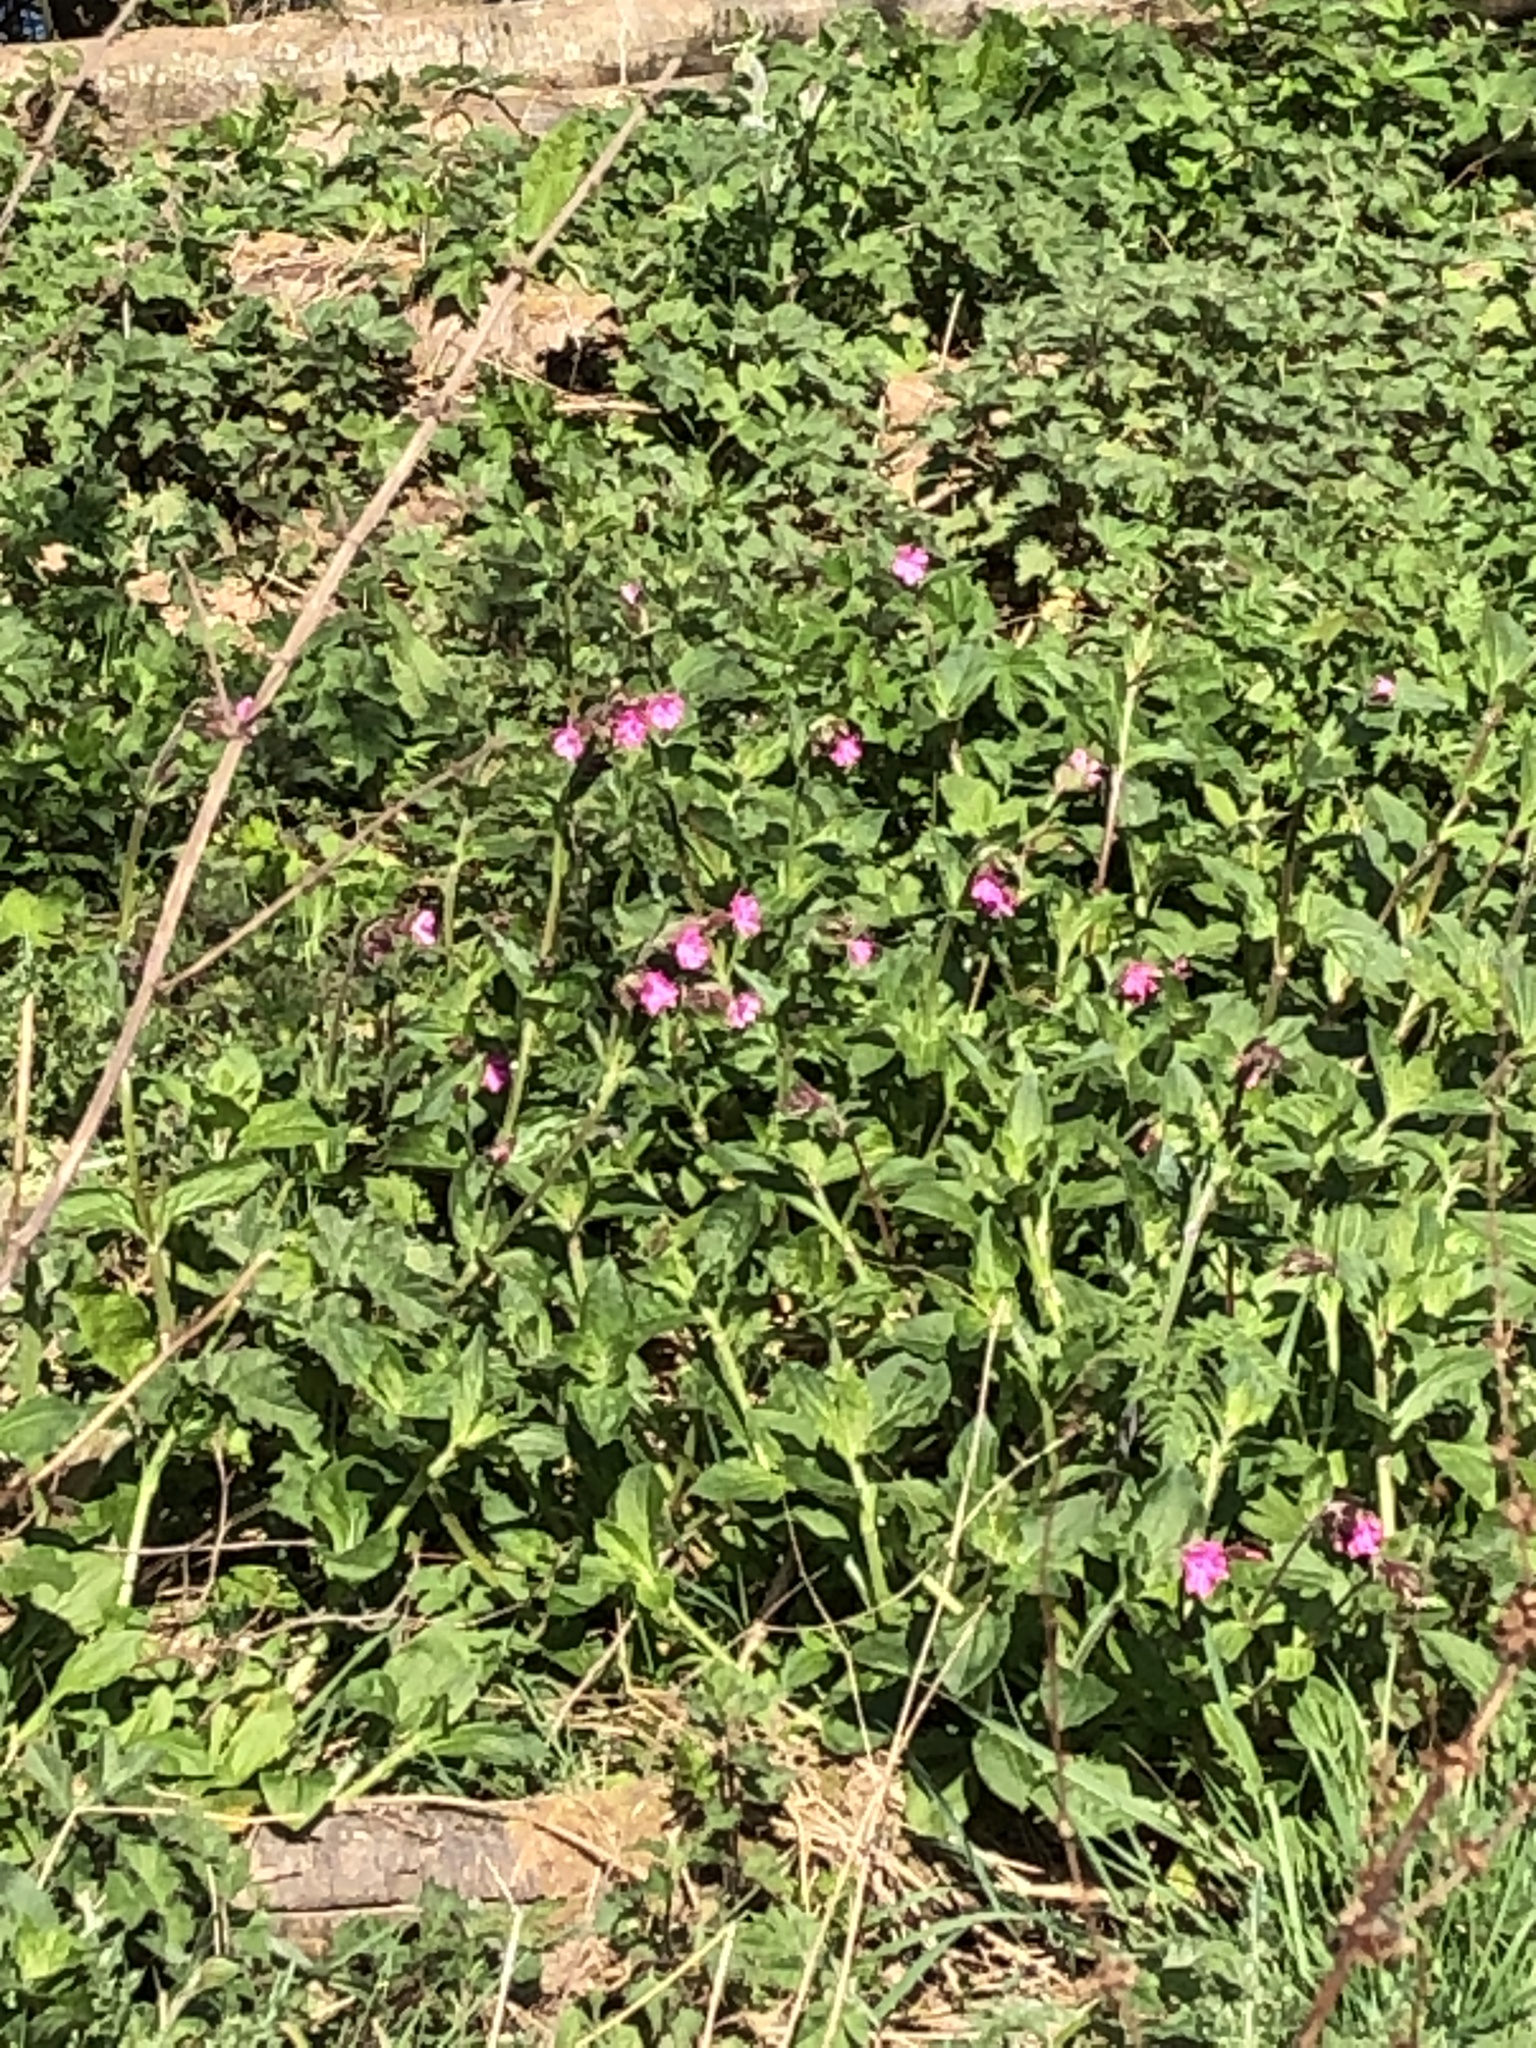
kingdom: Plantae
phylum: Tracheophyta
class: Magnoliopsida
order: Caryophyllales
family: Caryophyllaceae
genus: Silene
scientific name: Silene dioica
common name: Red campion
